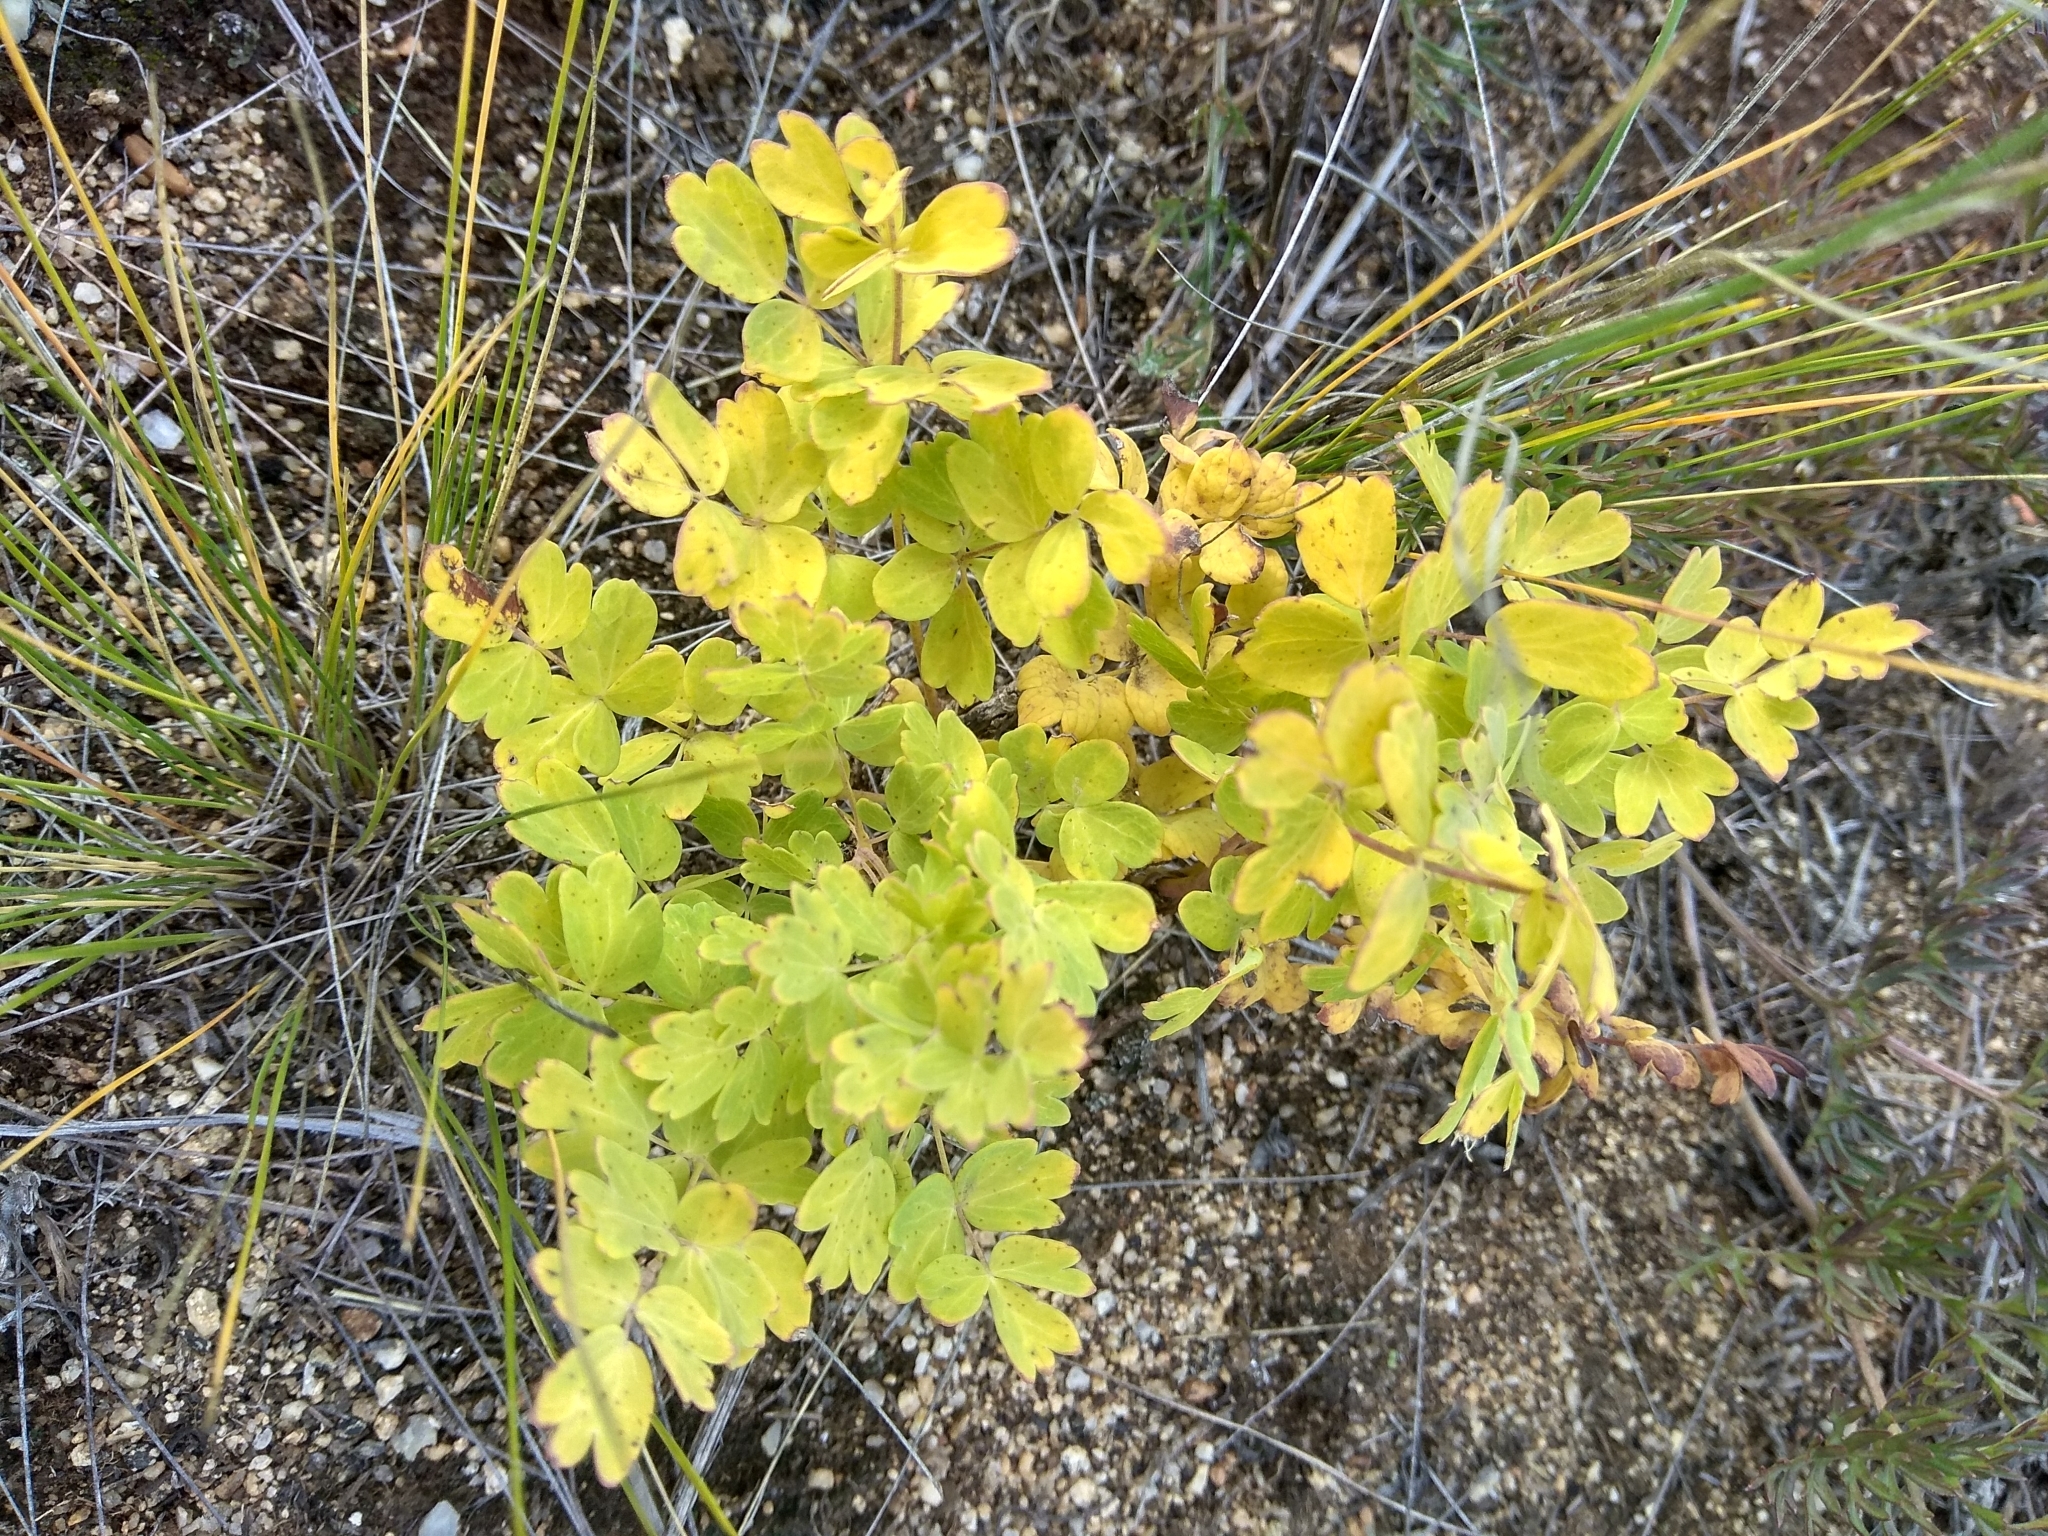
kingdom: Plantae
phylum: Tracheophyta
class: Magnoliopsida
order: Ranunculales
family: Ranunculaceae
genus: Thalictrum
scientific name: Thalictrum minus
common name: Lesser meadow-rue
